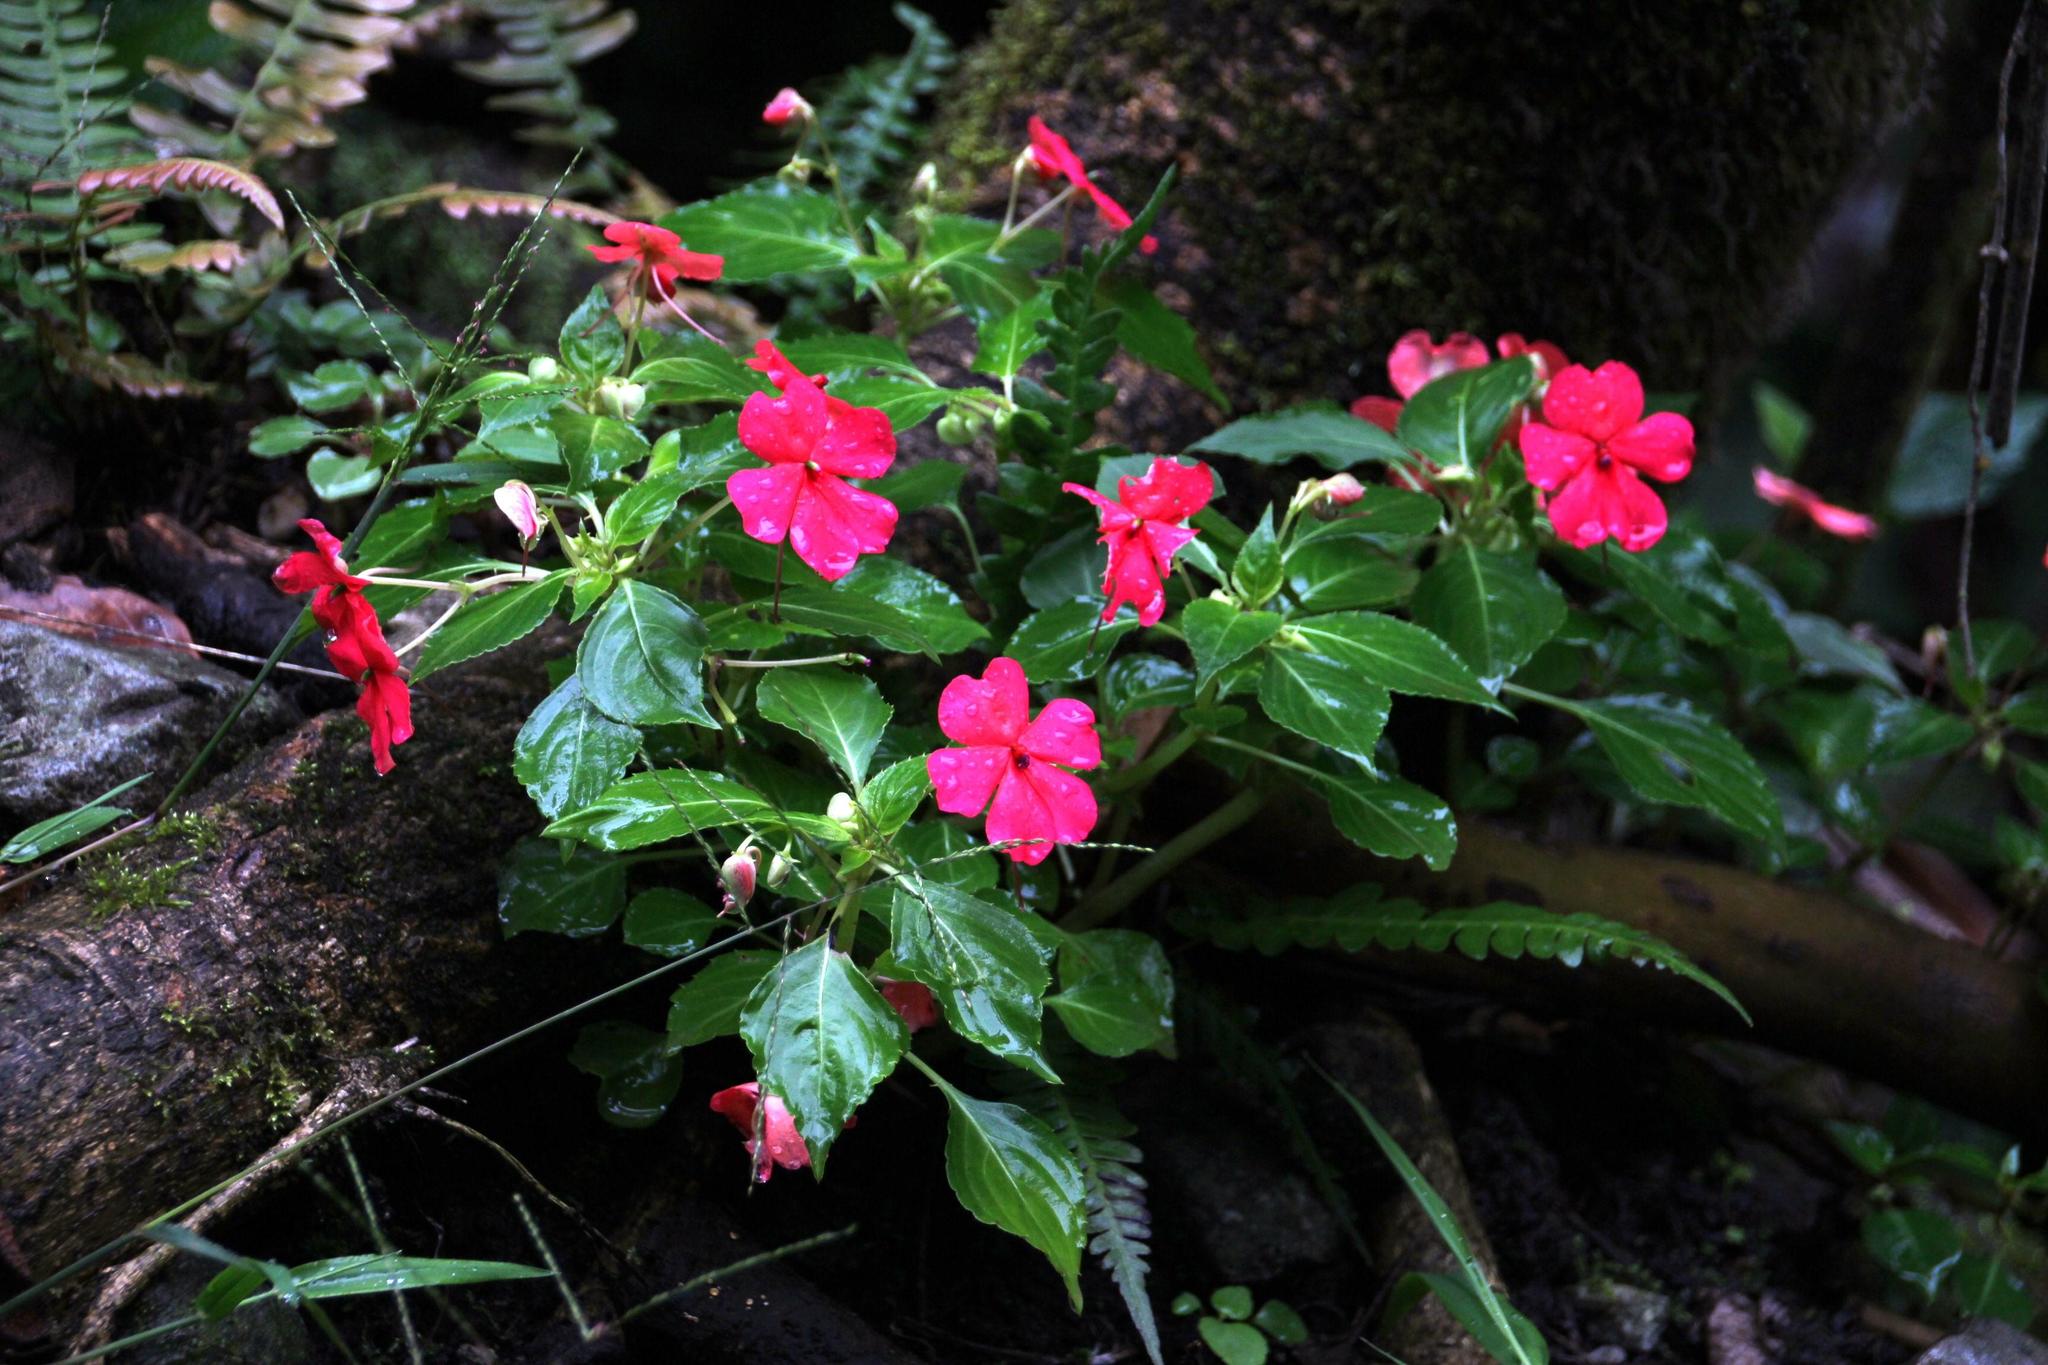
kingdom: Plantae
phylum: Tracheophyta
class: Magnoliopsida
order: Ericales
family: Balsaminaceae
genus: Impatiens
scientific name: Impatiens walleriana
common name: Buzzy lizzy
